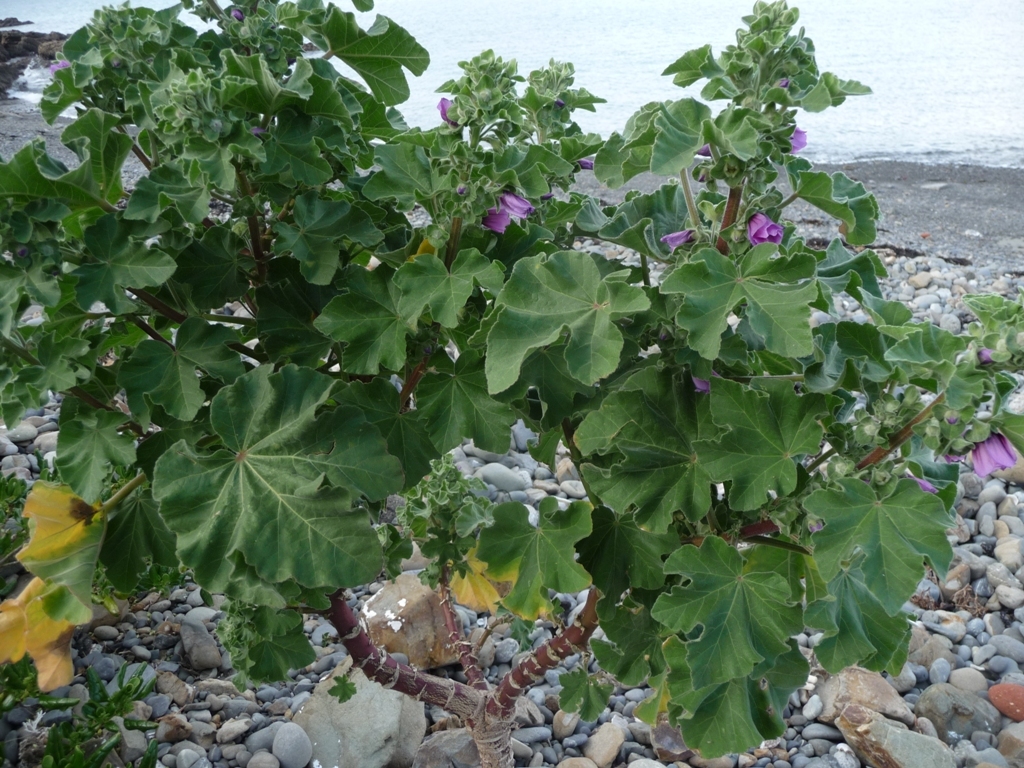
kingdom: Plantae
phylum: Tracheophyta
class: Magnoliopsida
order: Malvales
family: Malvaceae
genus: Malva
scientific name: Malva arborea
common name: Tree mallow
